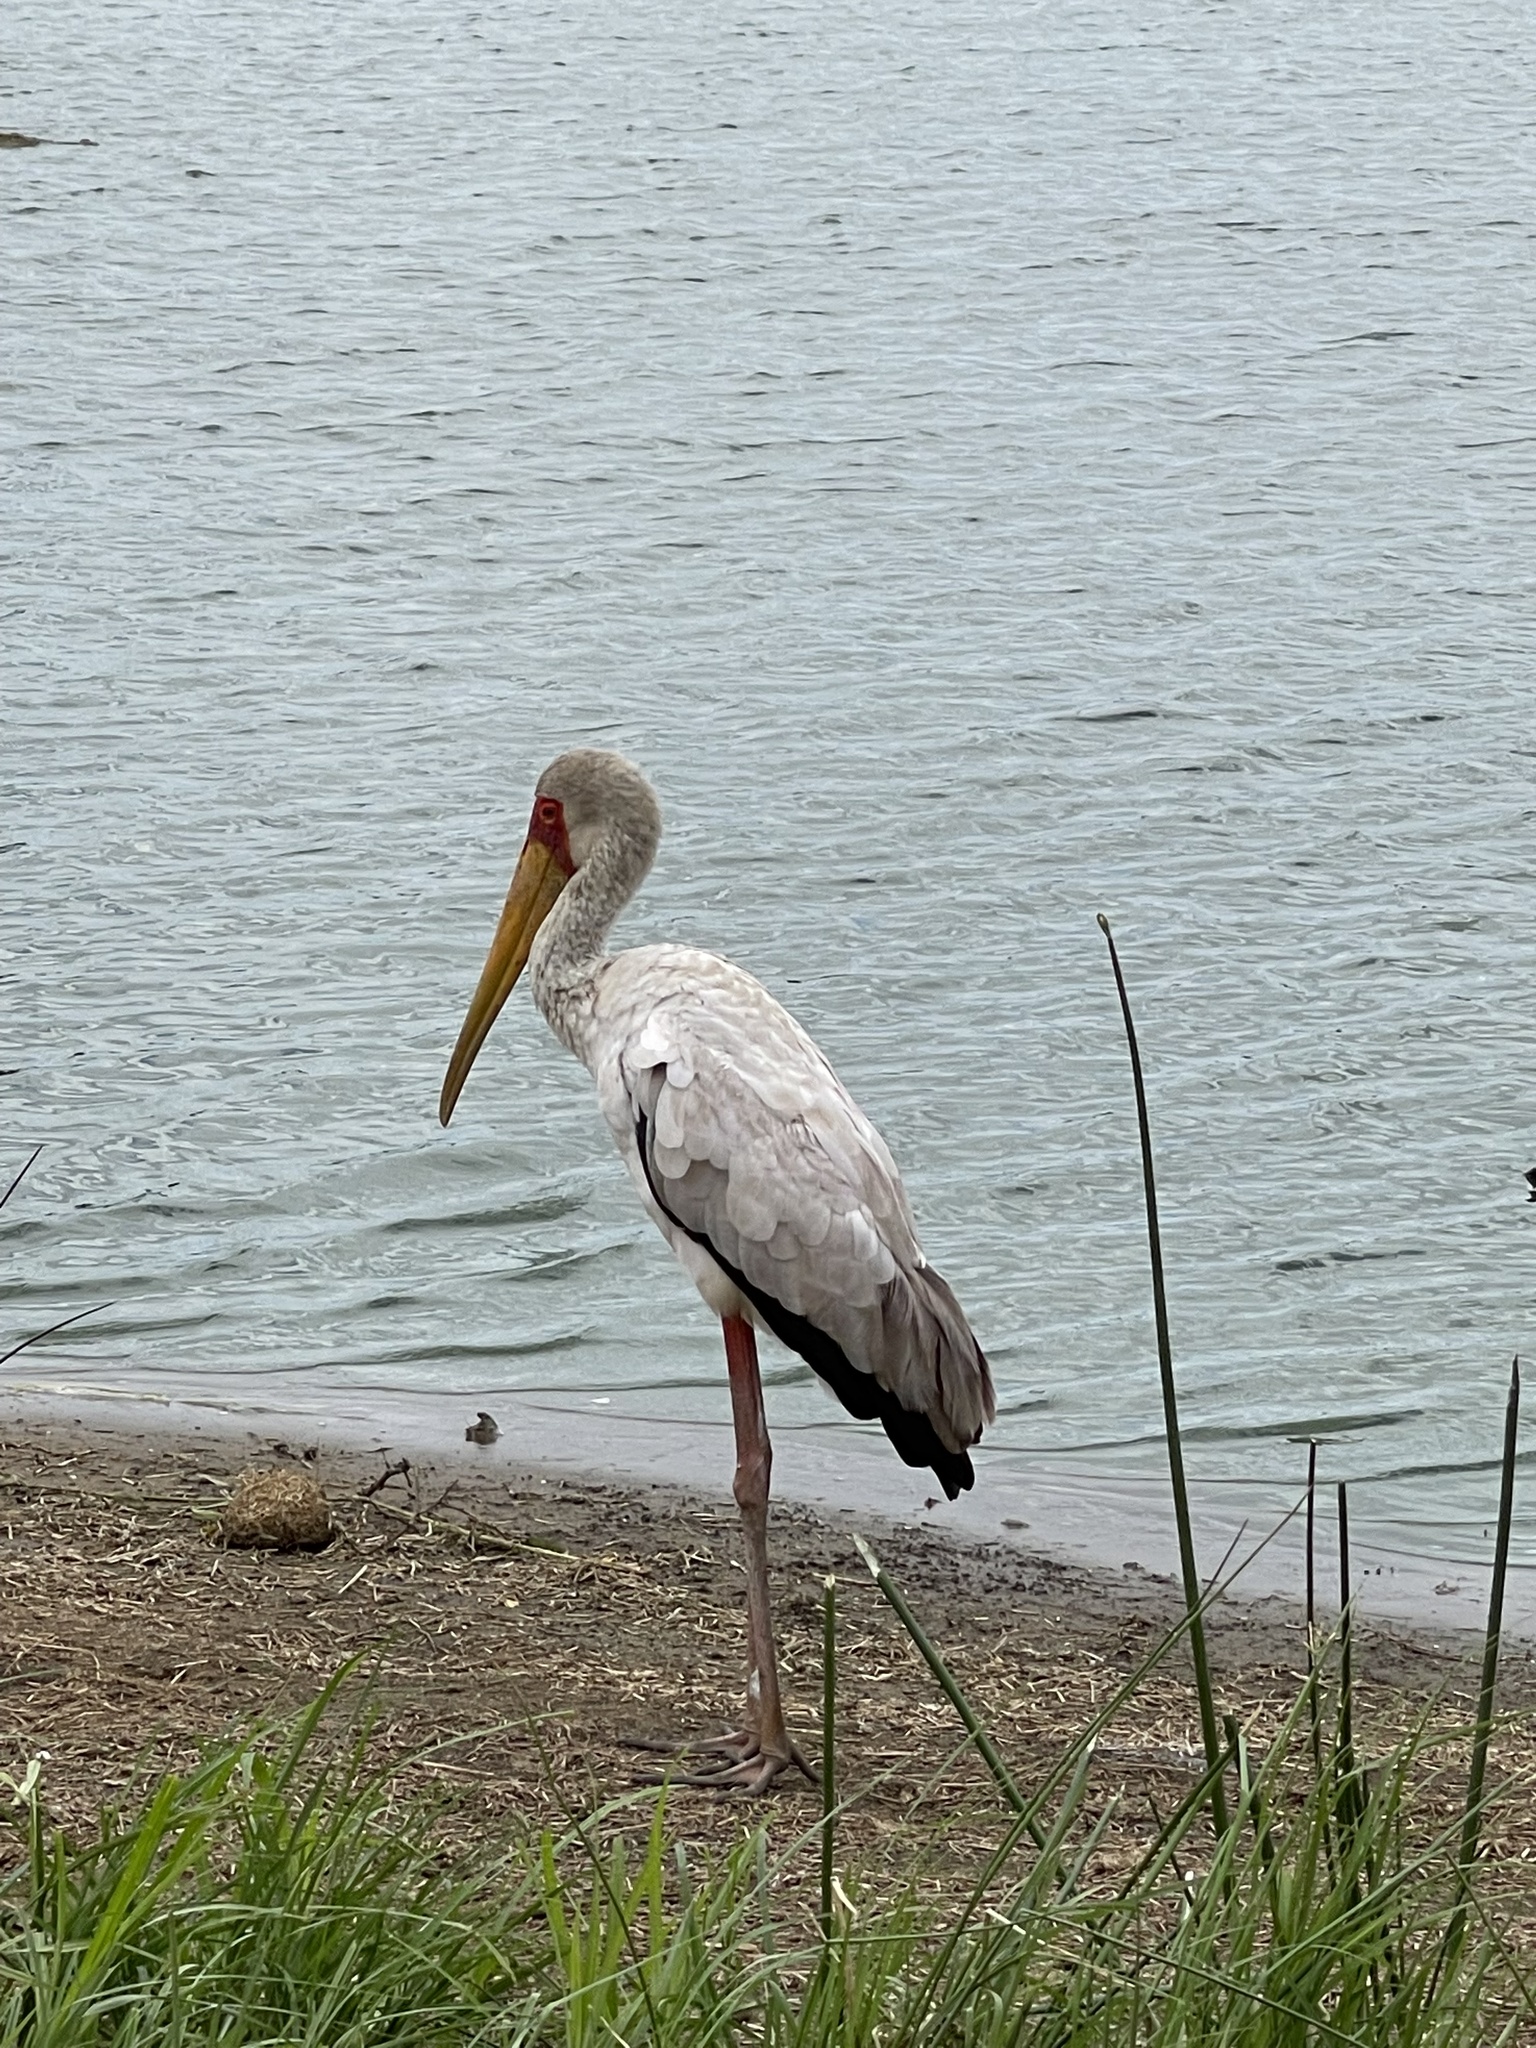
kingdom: Animalia
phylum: Chordata
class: Aves
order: Ciconiiformes
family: Ciconiidae
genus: Mycteria
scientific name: Mycteria ibis
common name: Yellow-billed stork
